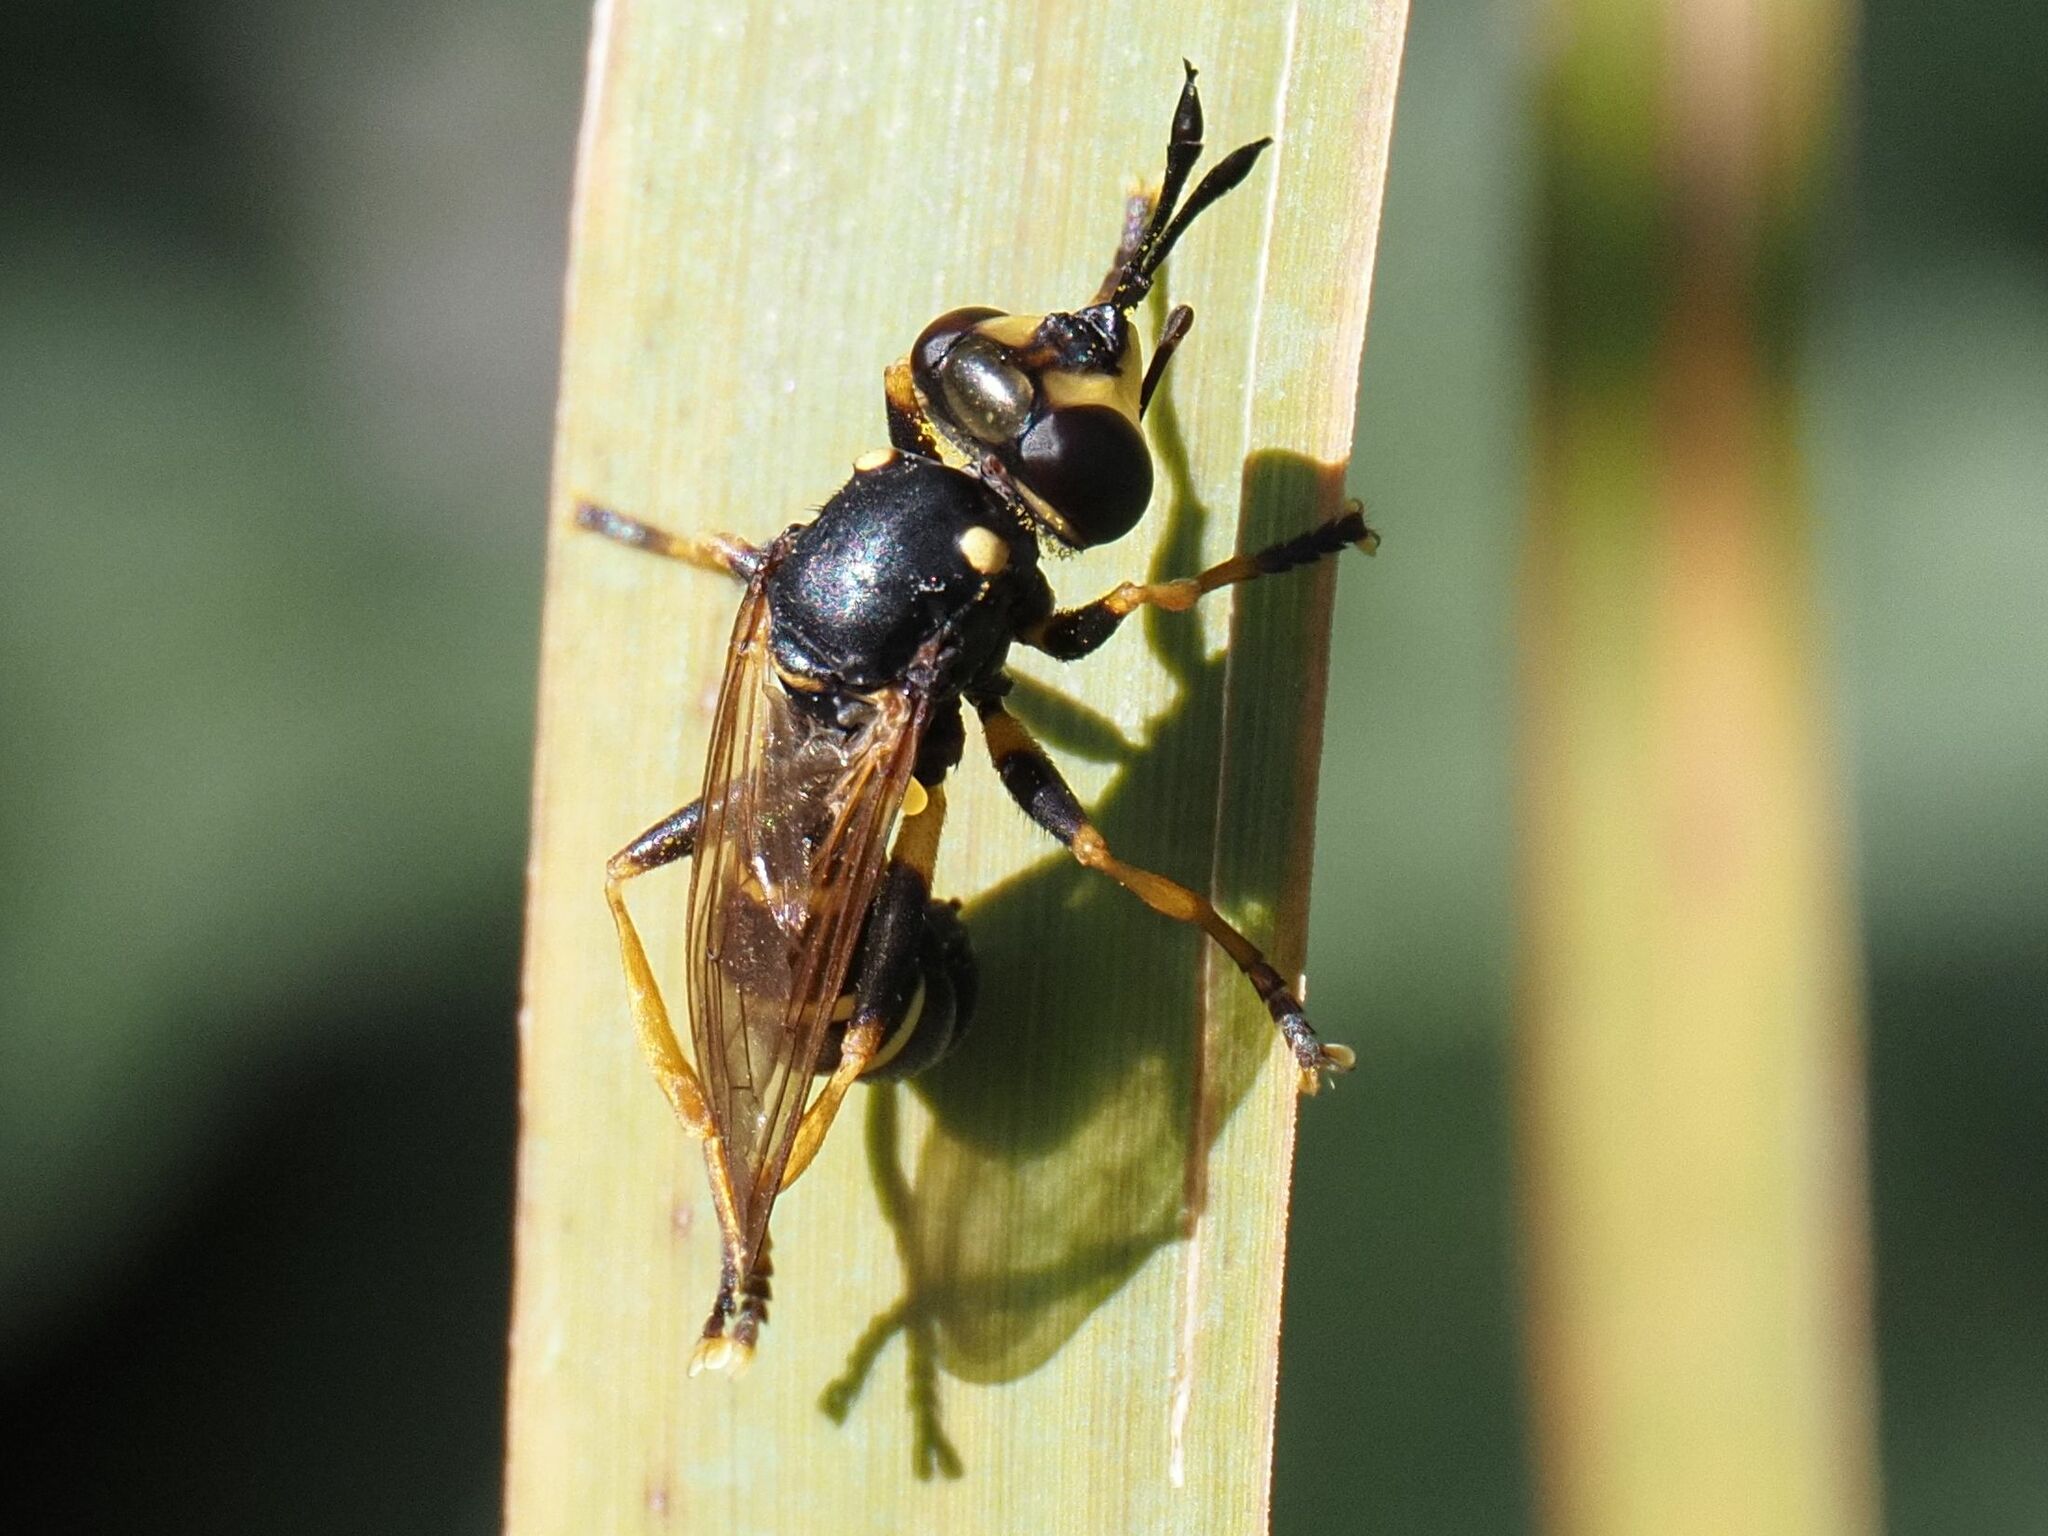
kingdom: Animalia
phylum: Arthropoda
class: Insecta
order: Diptera
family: Conopidae
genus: Conops
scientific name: Conops flavipes
